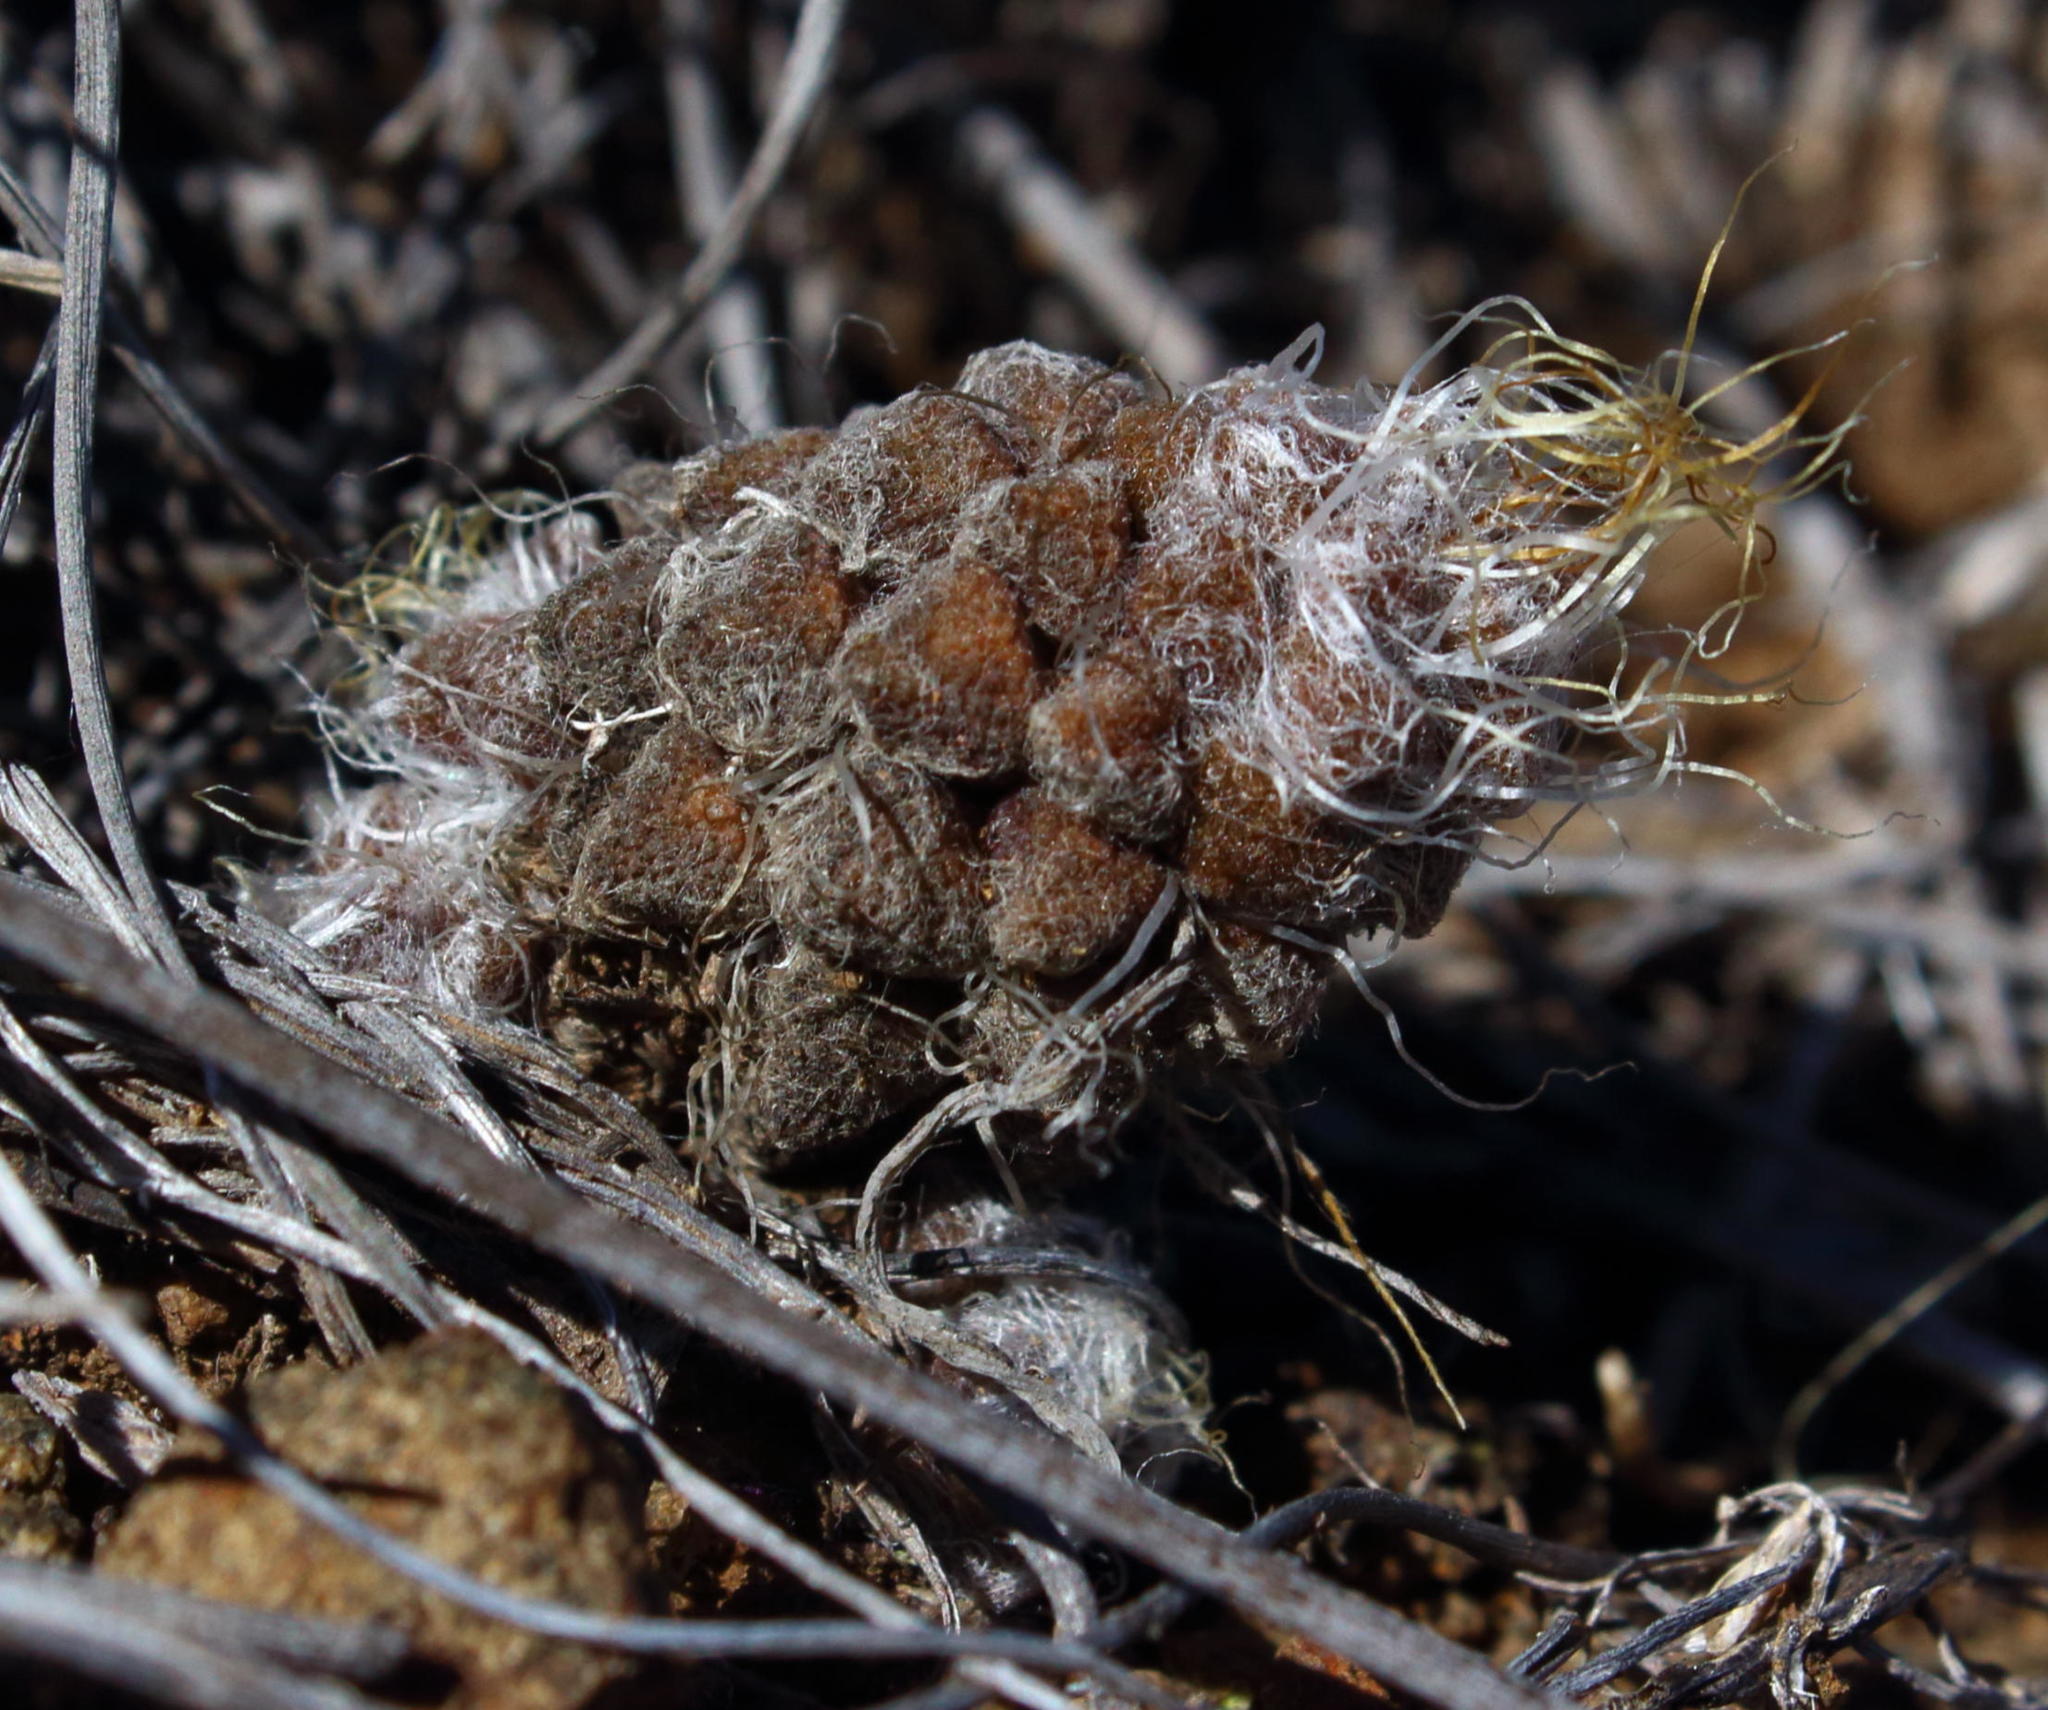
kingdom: Plantae
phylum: Tracheophyta
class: Magnoliopsida
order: Caryophyllales
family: Anacampserotaceae
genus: Anacampseros
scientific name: Anacampseros filamentosa
